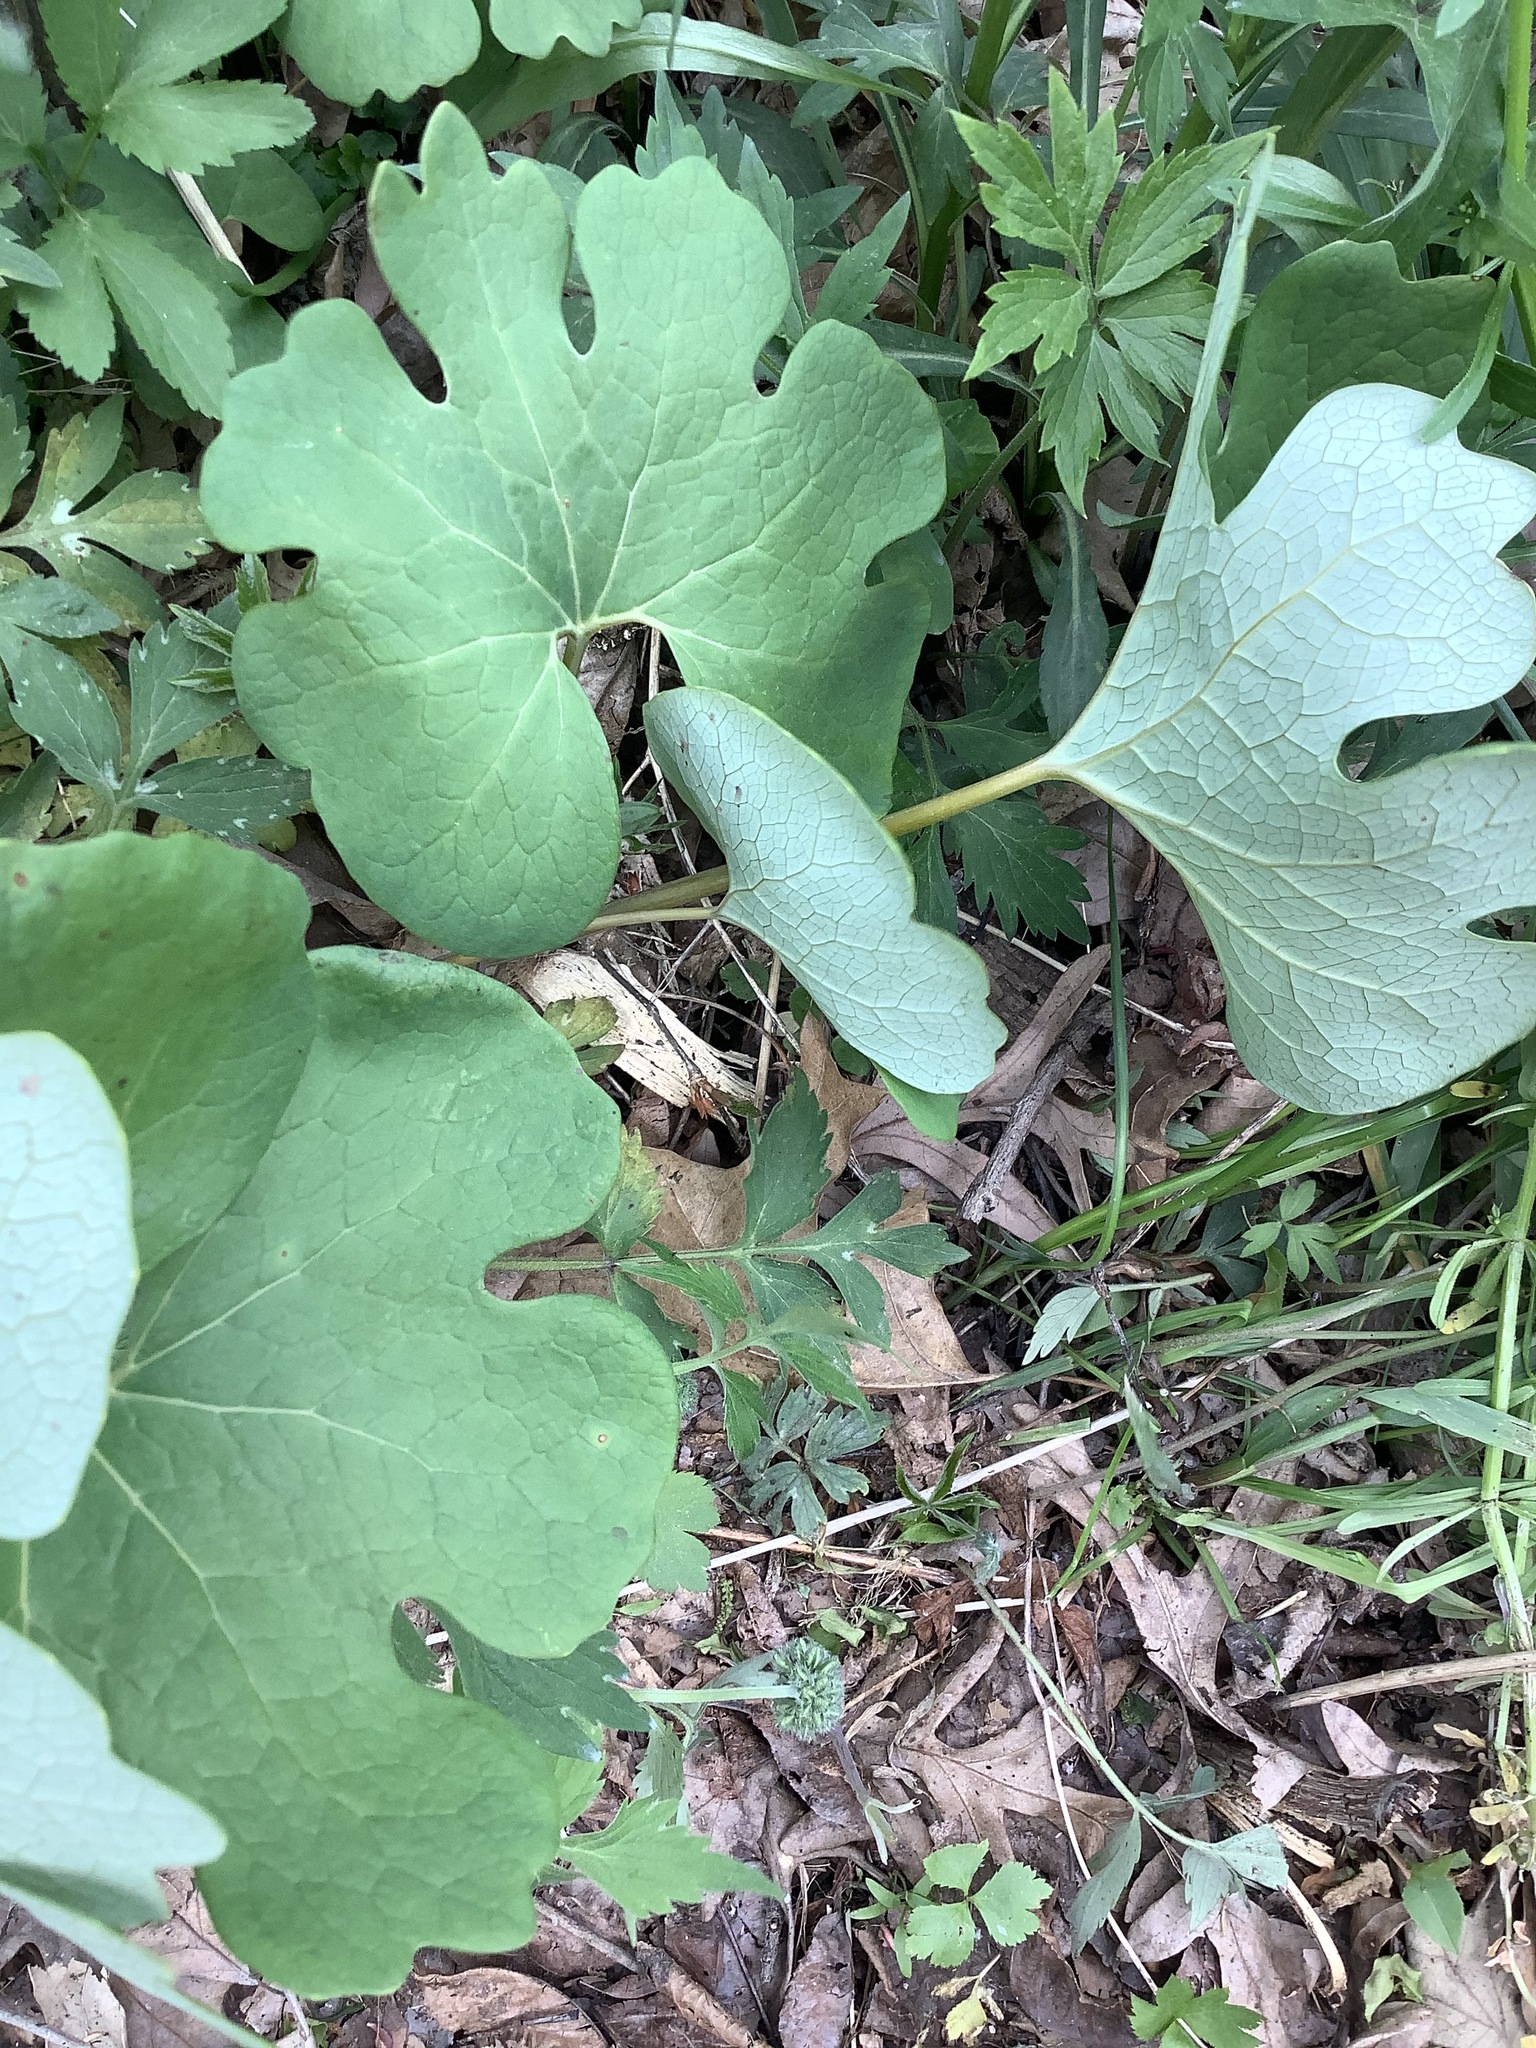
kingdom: Plantae
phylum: Tracheophyta
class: Magnoliopsida
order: Ranunculales
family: Papaveraceae
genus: Sanguinaria
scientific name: Sanguinaria canadensis
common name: Bloodroot
